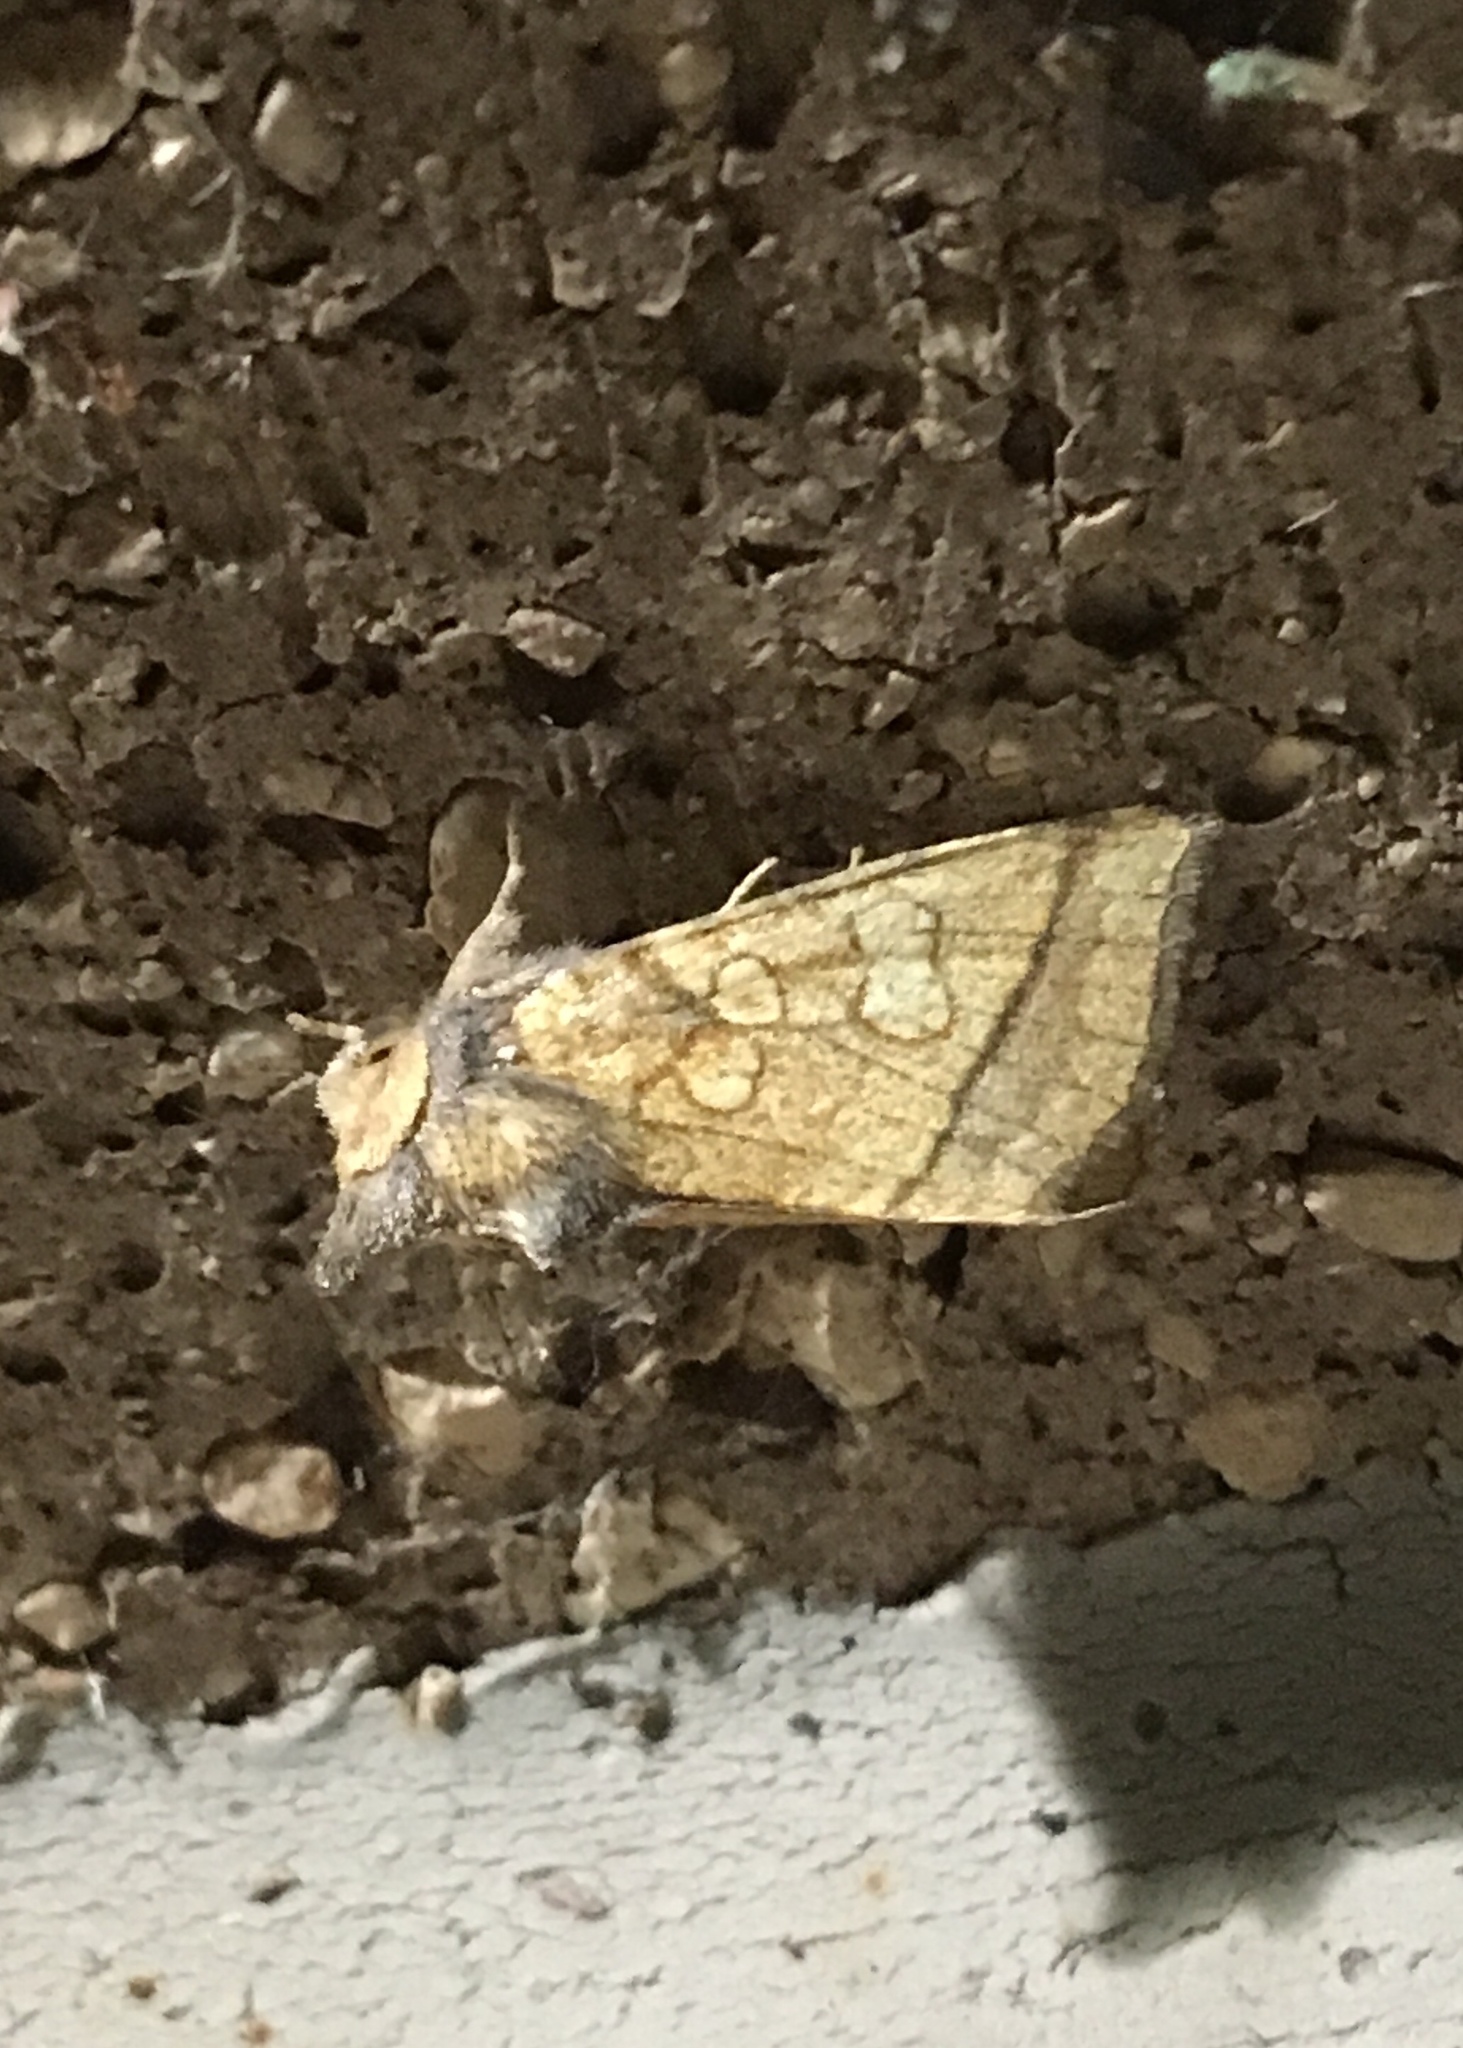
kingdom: Animalia
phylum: Arthropoda
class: Insecta
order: Lepidoptera
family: Noctuidae
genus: Papaipema
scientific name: Papaipema rigida
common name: Rigid sunflower borer moth
